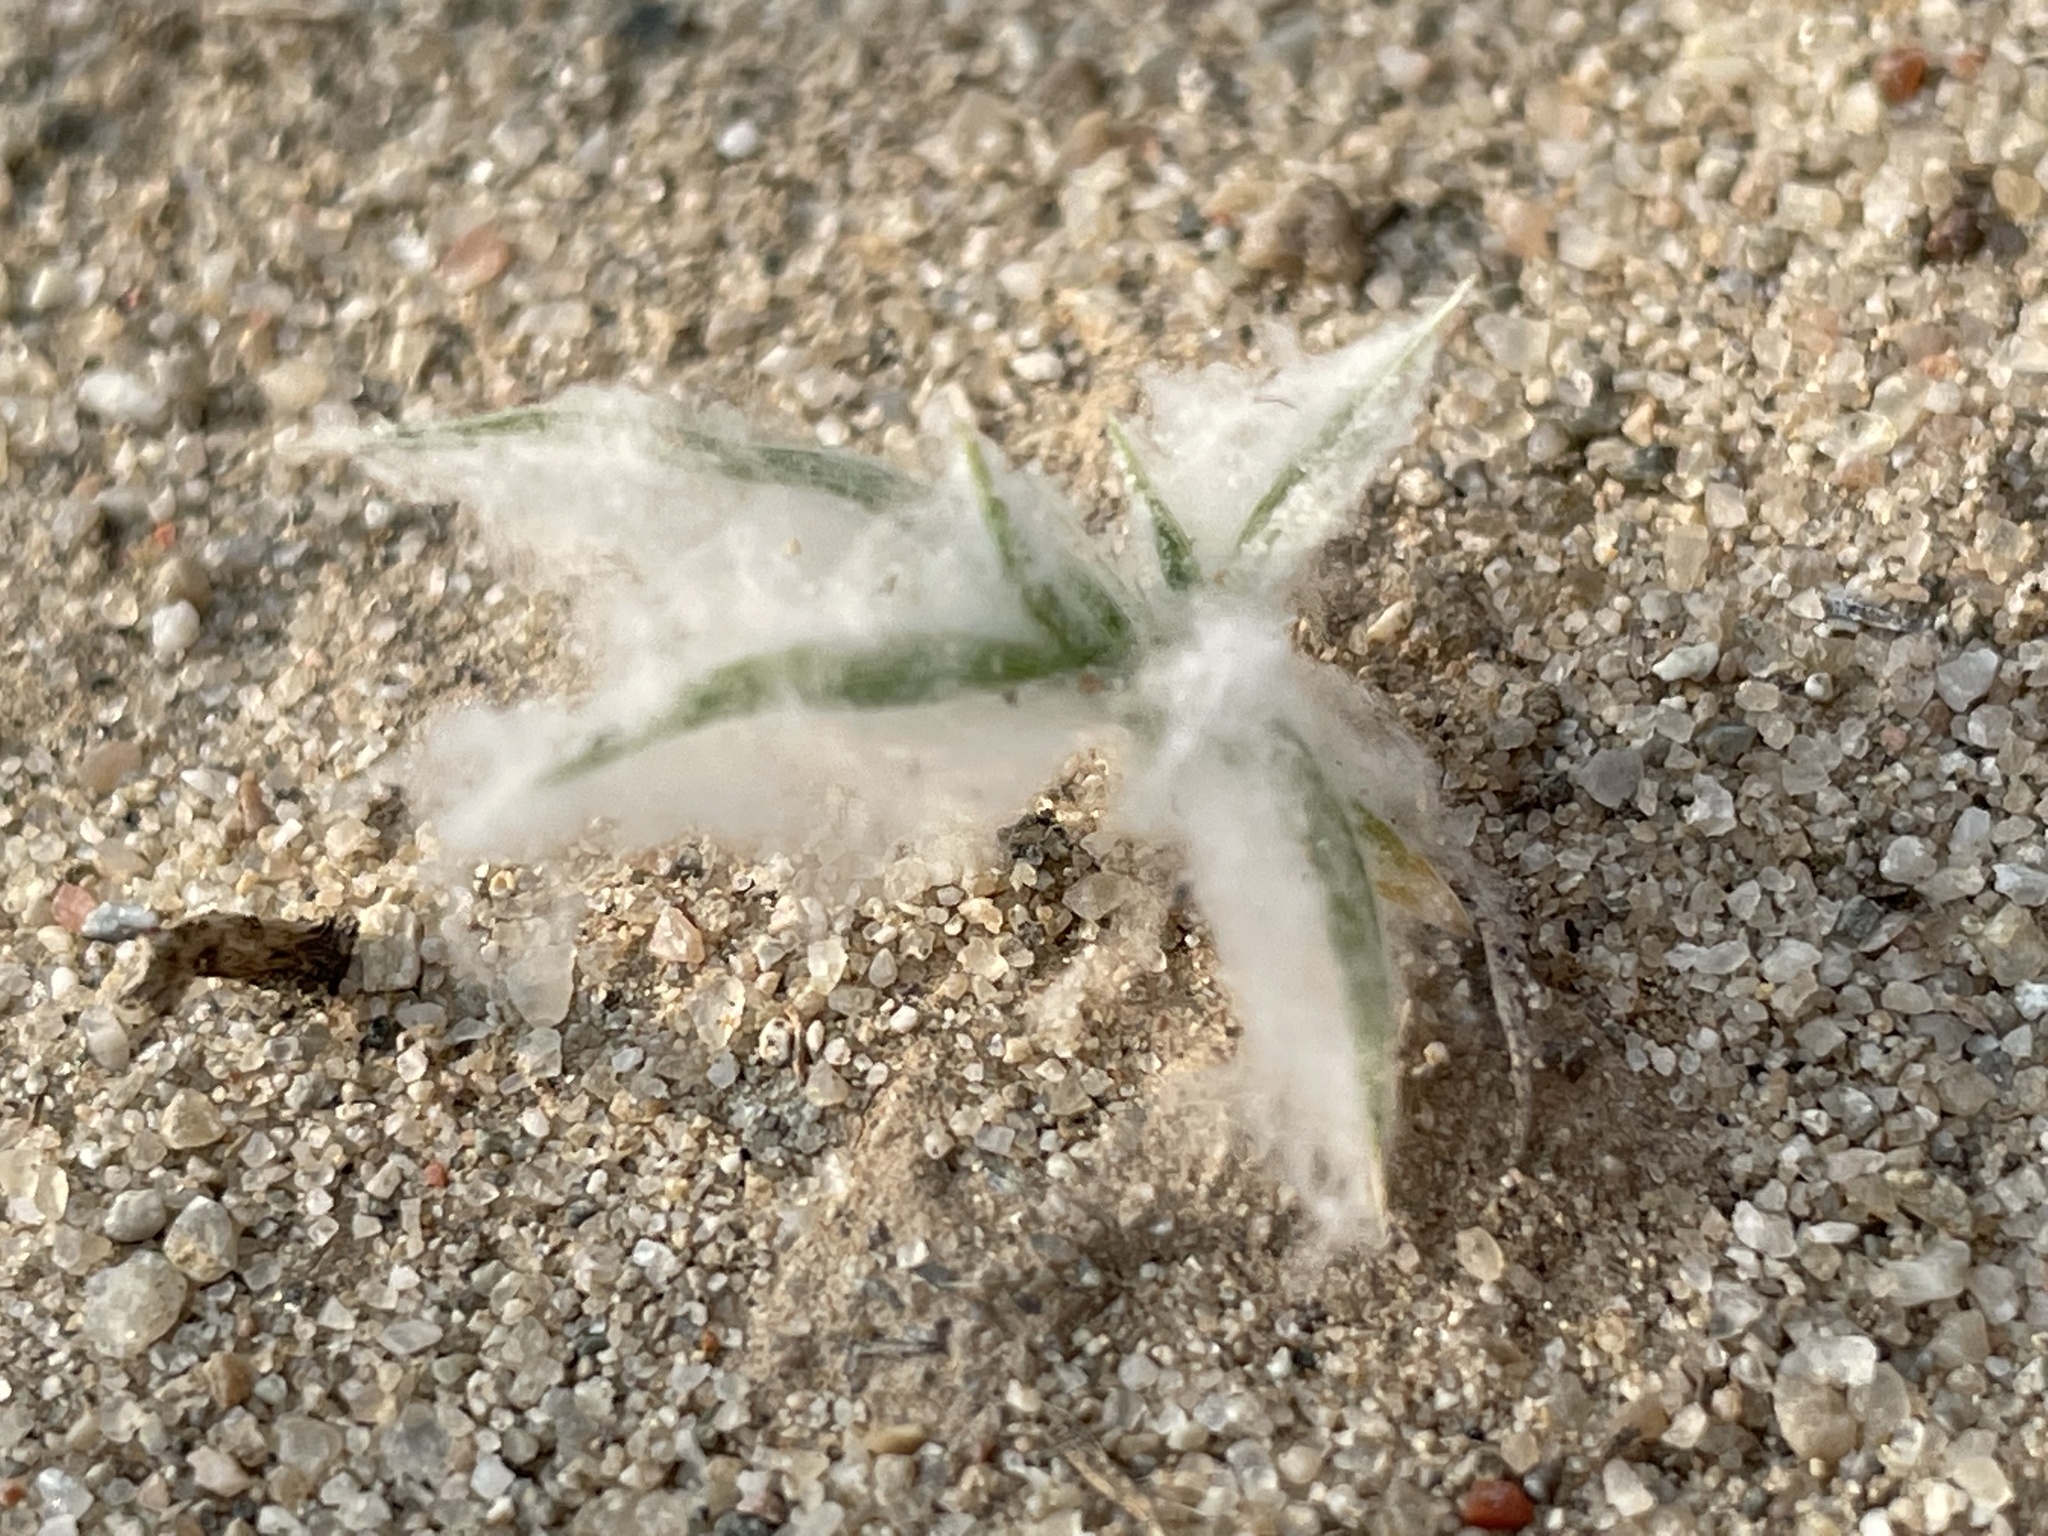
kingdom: Plantae
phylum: Tracheophyta
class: Liliopsida
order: Poales
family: Poaceae
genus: Munroa
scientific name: Munroa squarrosa
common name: False buffalo grass
